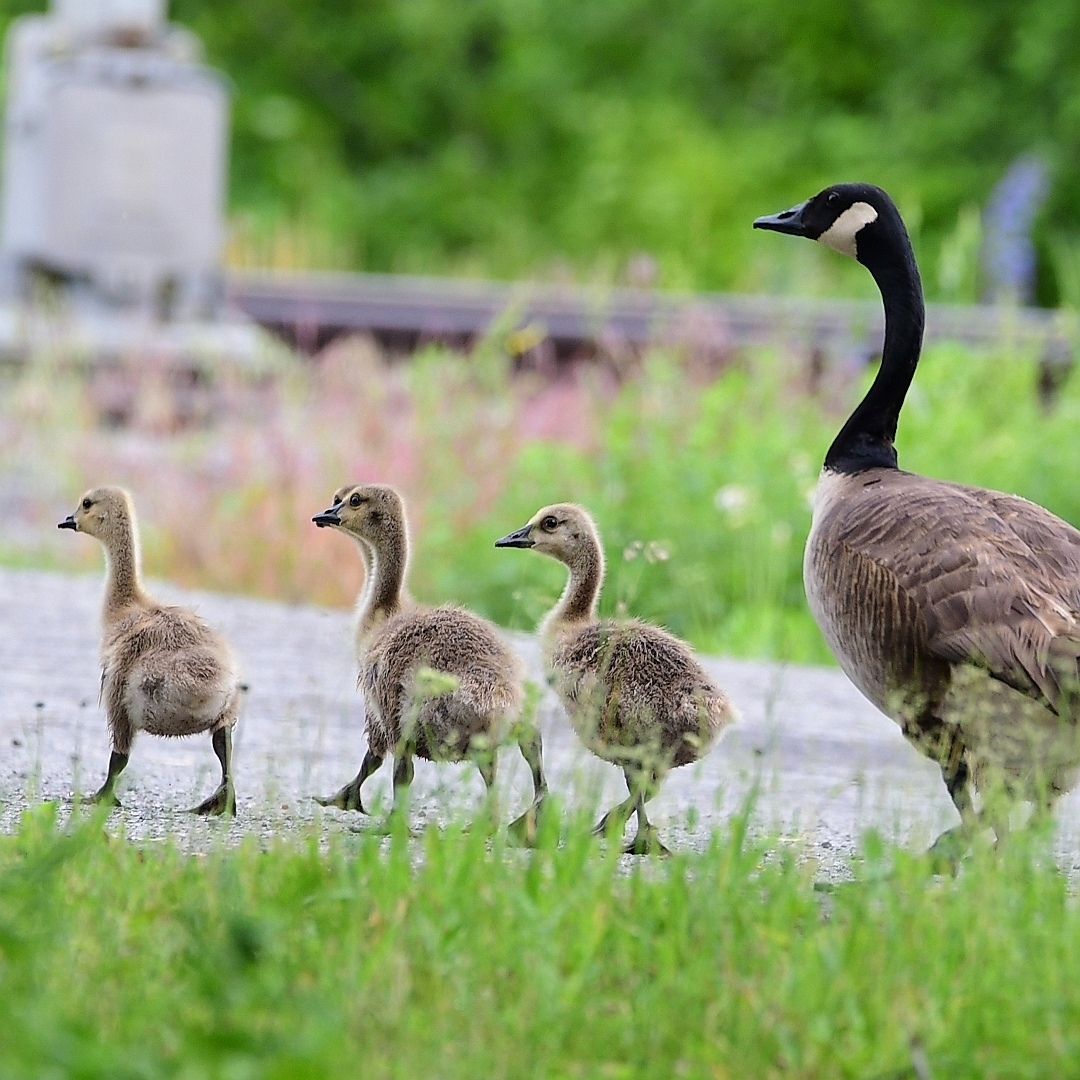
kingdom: Animalia
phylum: Chordata
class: Aves
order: Anseriformes
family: Anatidae
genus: Branta
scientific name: Branta canadensis
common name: Canada goose
